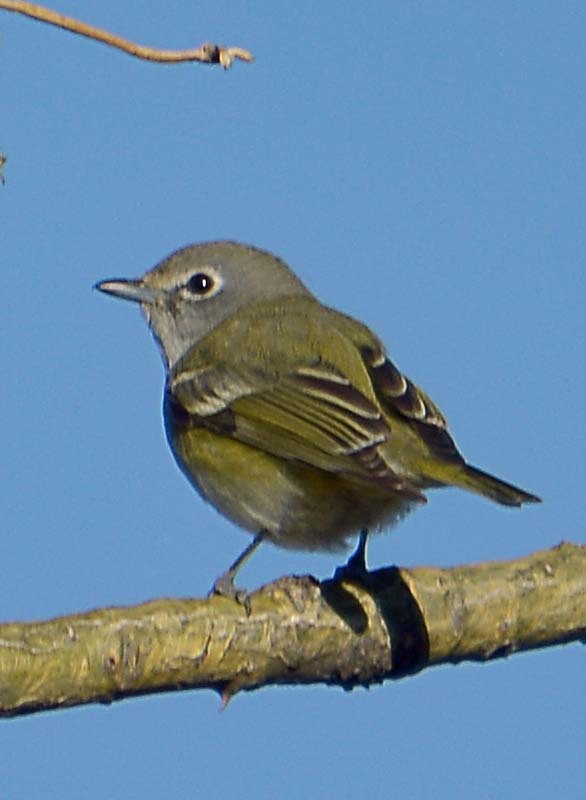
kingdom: Animalia
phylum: Chordata
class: Aves
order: Passeriformes
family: Vireonidae
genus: Vireo
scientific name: Vireo cassinii
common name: Cassin's vireo
